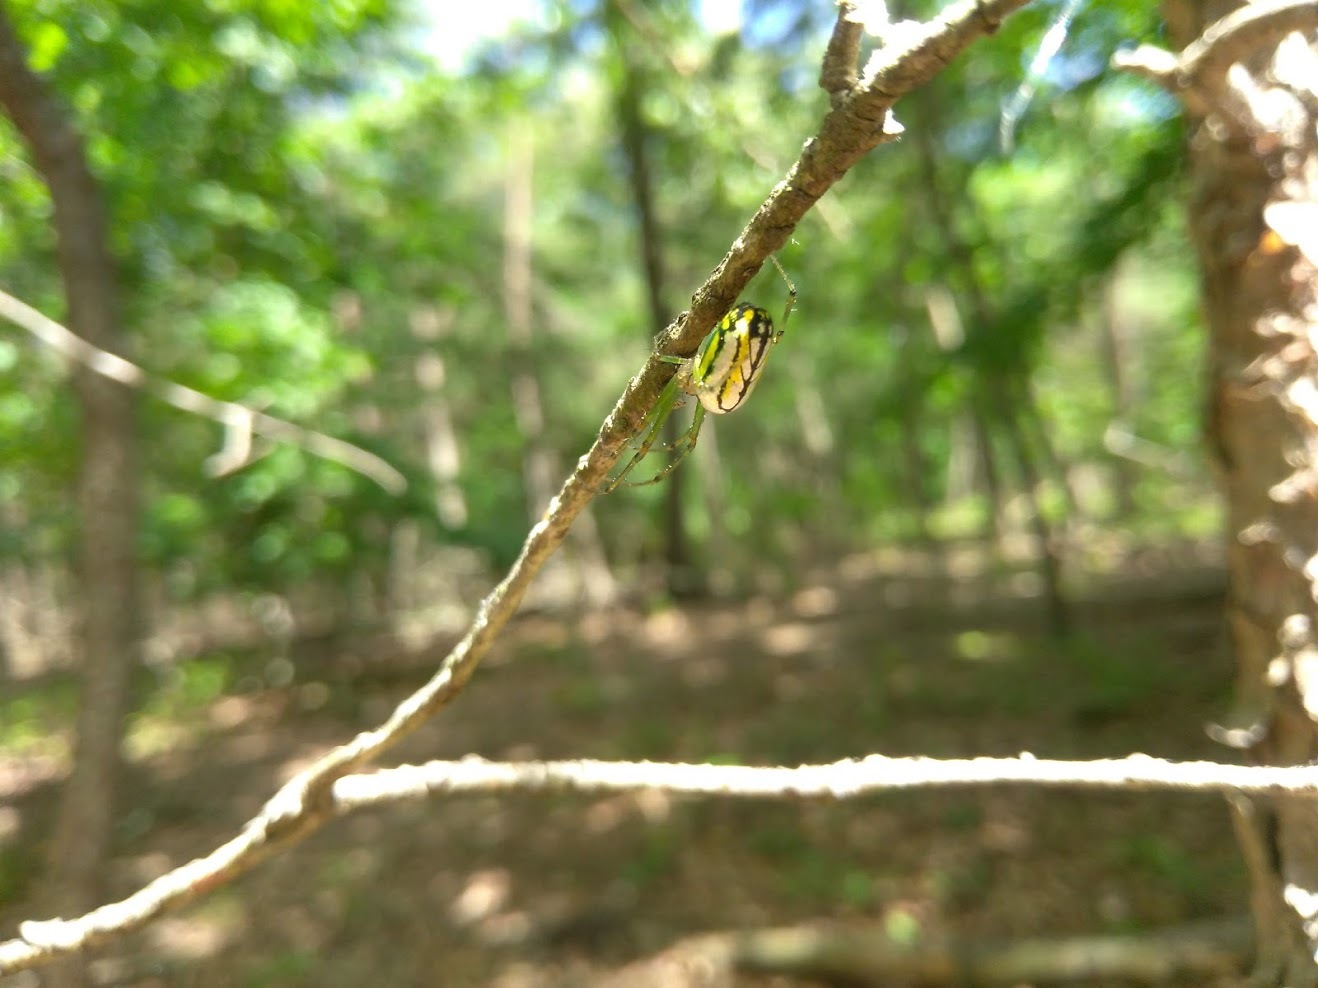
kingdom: Animalia
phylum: Arthropoda
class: Arachnida
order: Araneae
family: Tetragnathidae
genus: Leucauge
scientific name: Leucauge venusta
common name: Longjawed orb weavers
